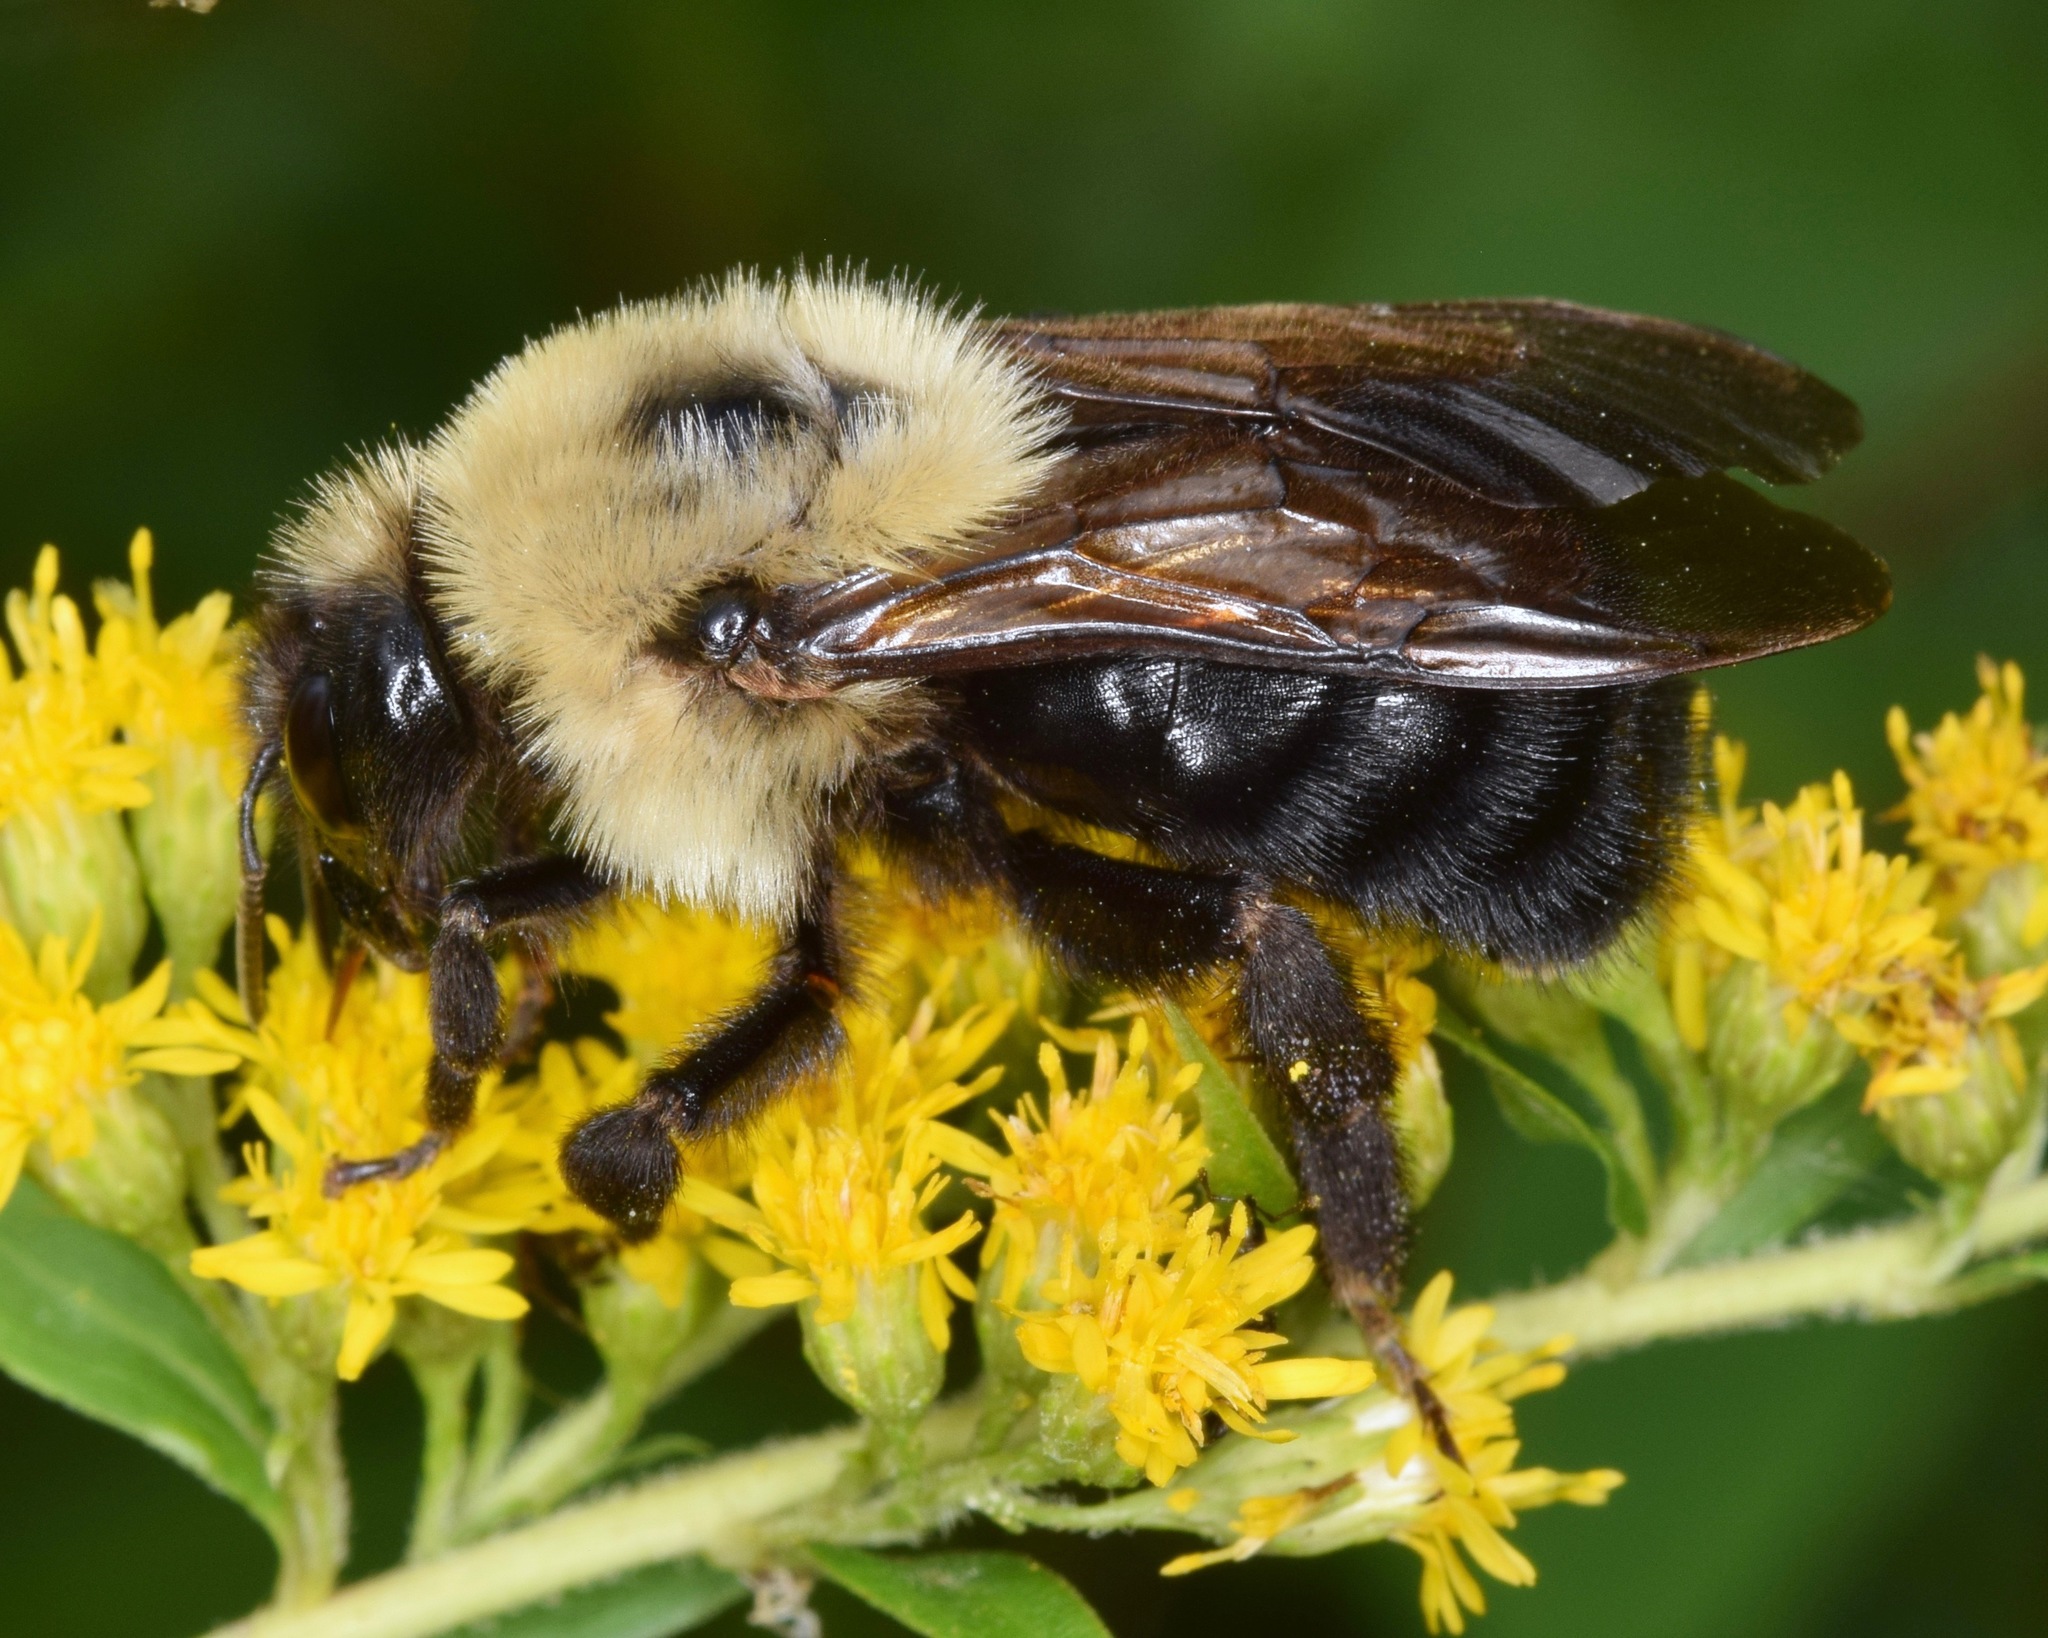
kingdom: Animalia
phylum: Arthropoda
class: Insecta
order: Hymenoptera
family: Apidae
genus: Bombus
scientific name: Bombus citrinus
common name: Lemon cuckoo bumble bee
